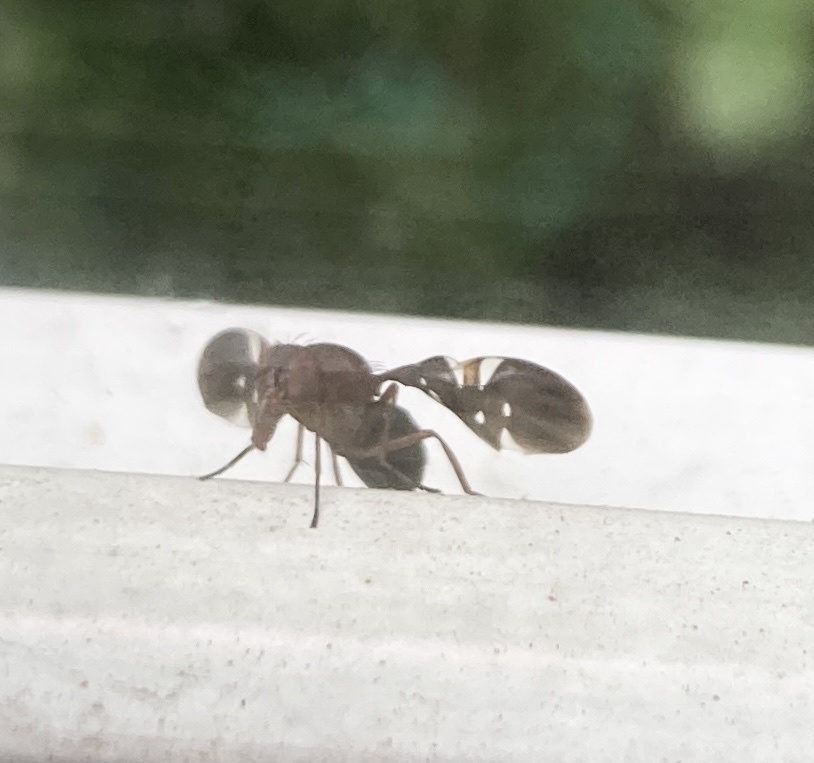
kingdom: Animalia
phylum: Arthropoda
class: Insecta
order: Diptera
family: Ulidiidae
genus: Delphinia
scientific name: Delphinia picta
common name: Common picture-winged fly
